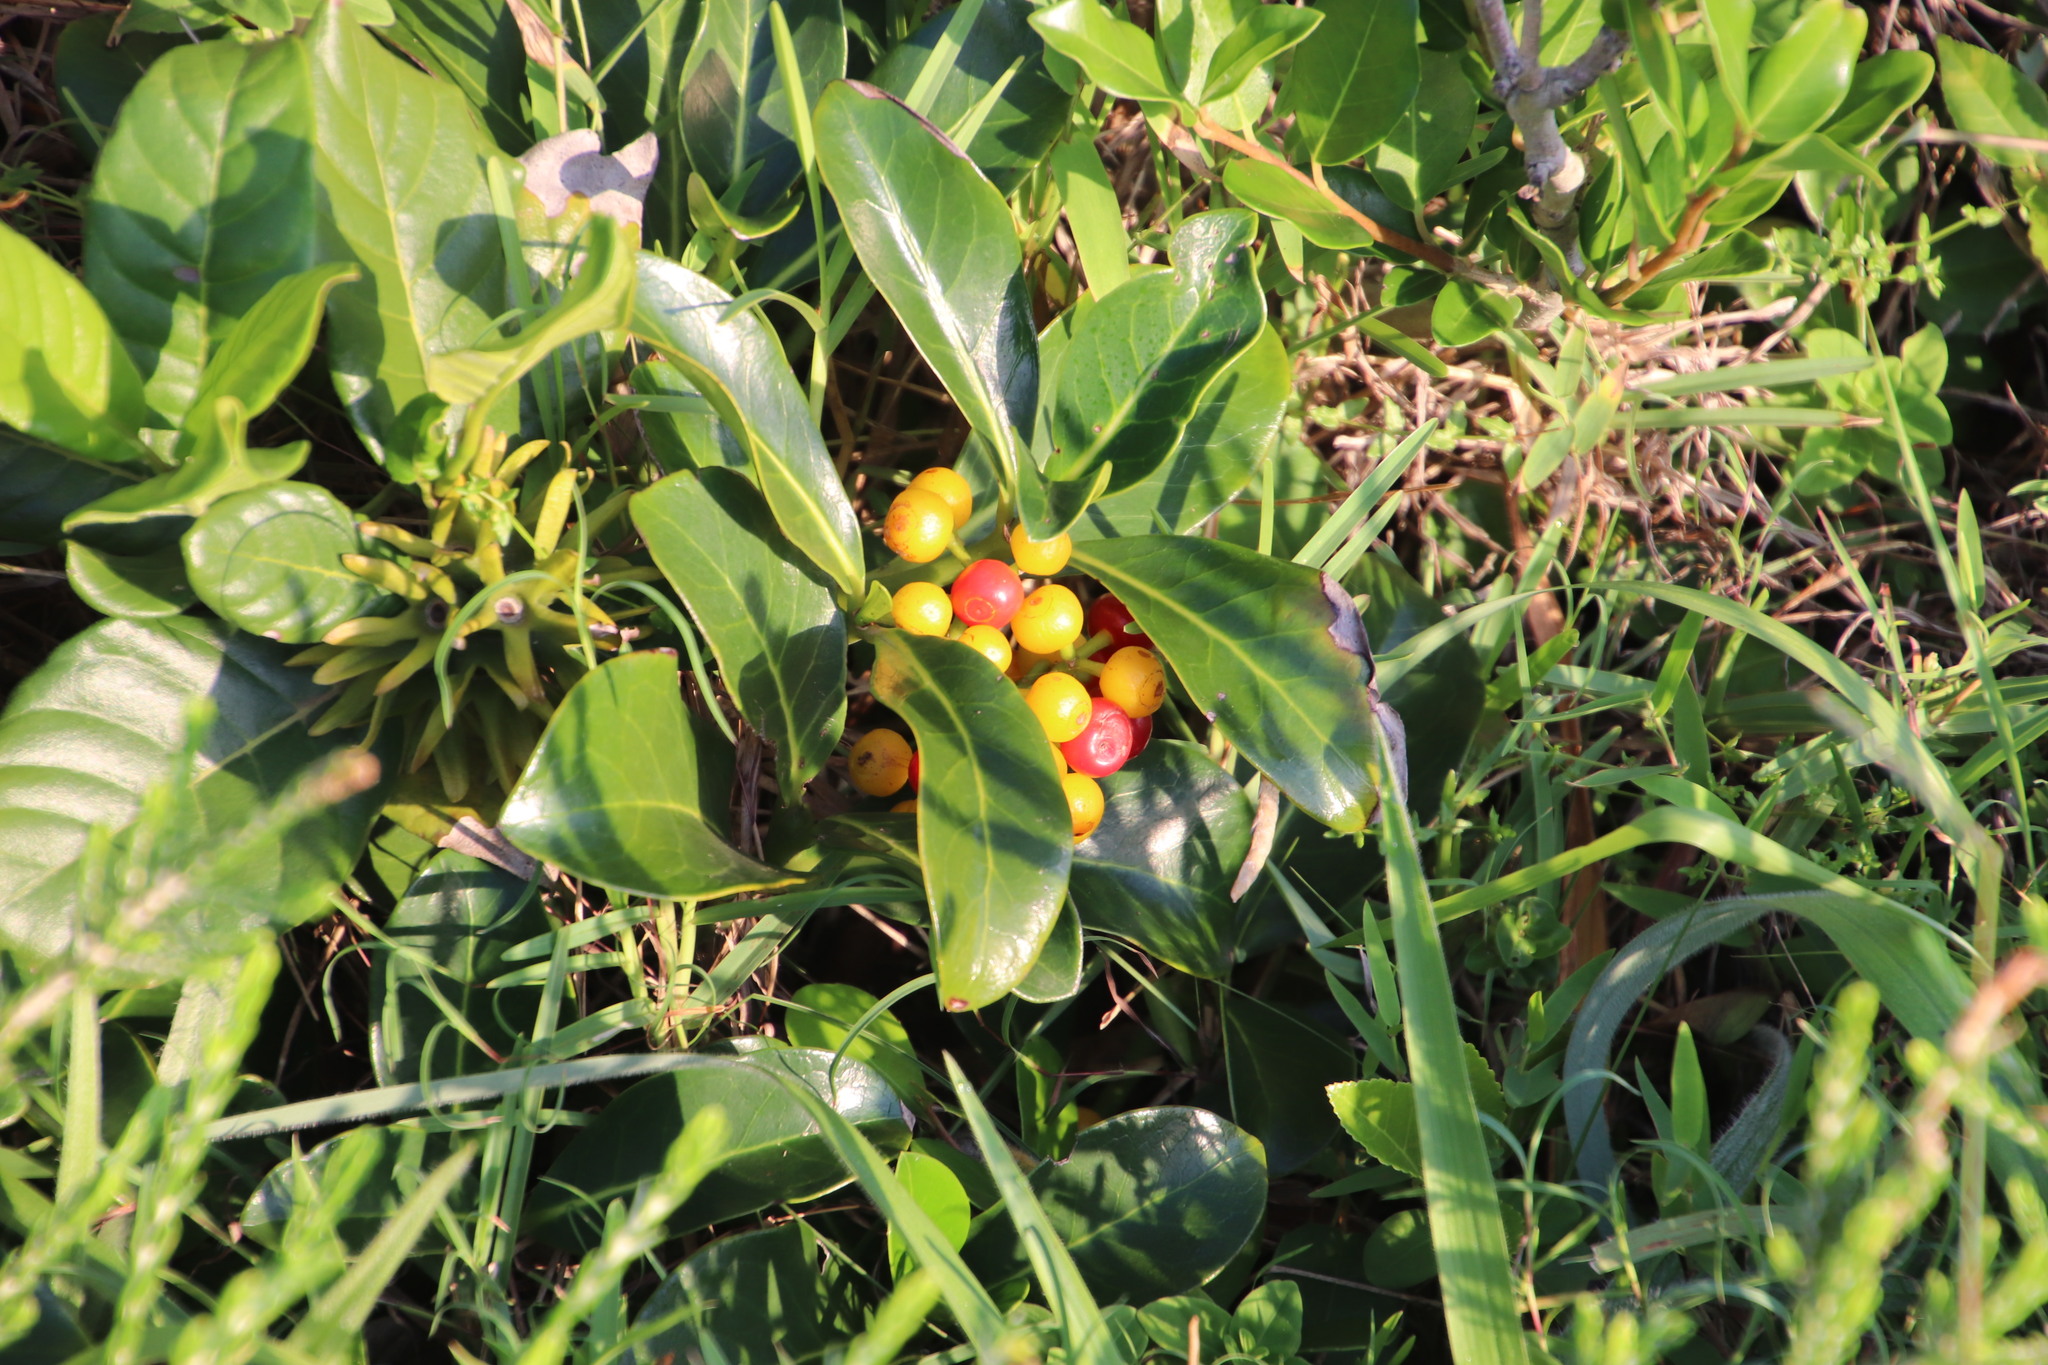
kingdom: Plantae
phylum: Tracheophyta
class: Magnoliopsida
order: Gentianales
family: Rubiaceae
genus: Psychotria
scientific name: Psychotria capensis
